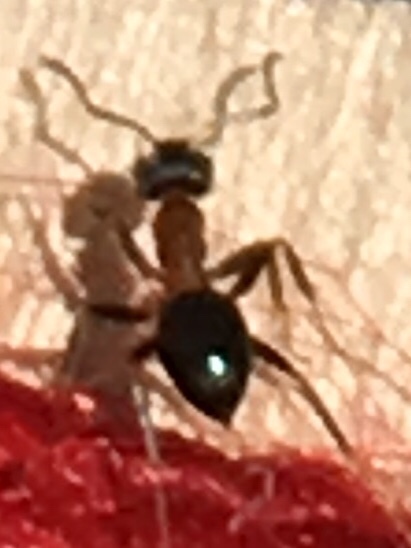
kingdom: Animalia
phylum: Arthropoda
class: Insecta
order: Hymenoptera
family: Formicidae
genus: Lasius
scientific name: Lasius emarginatus
